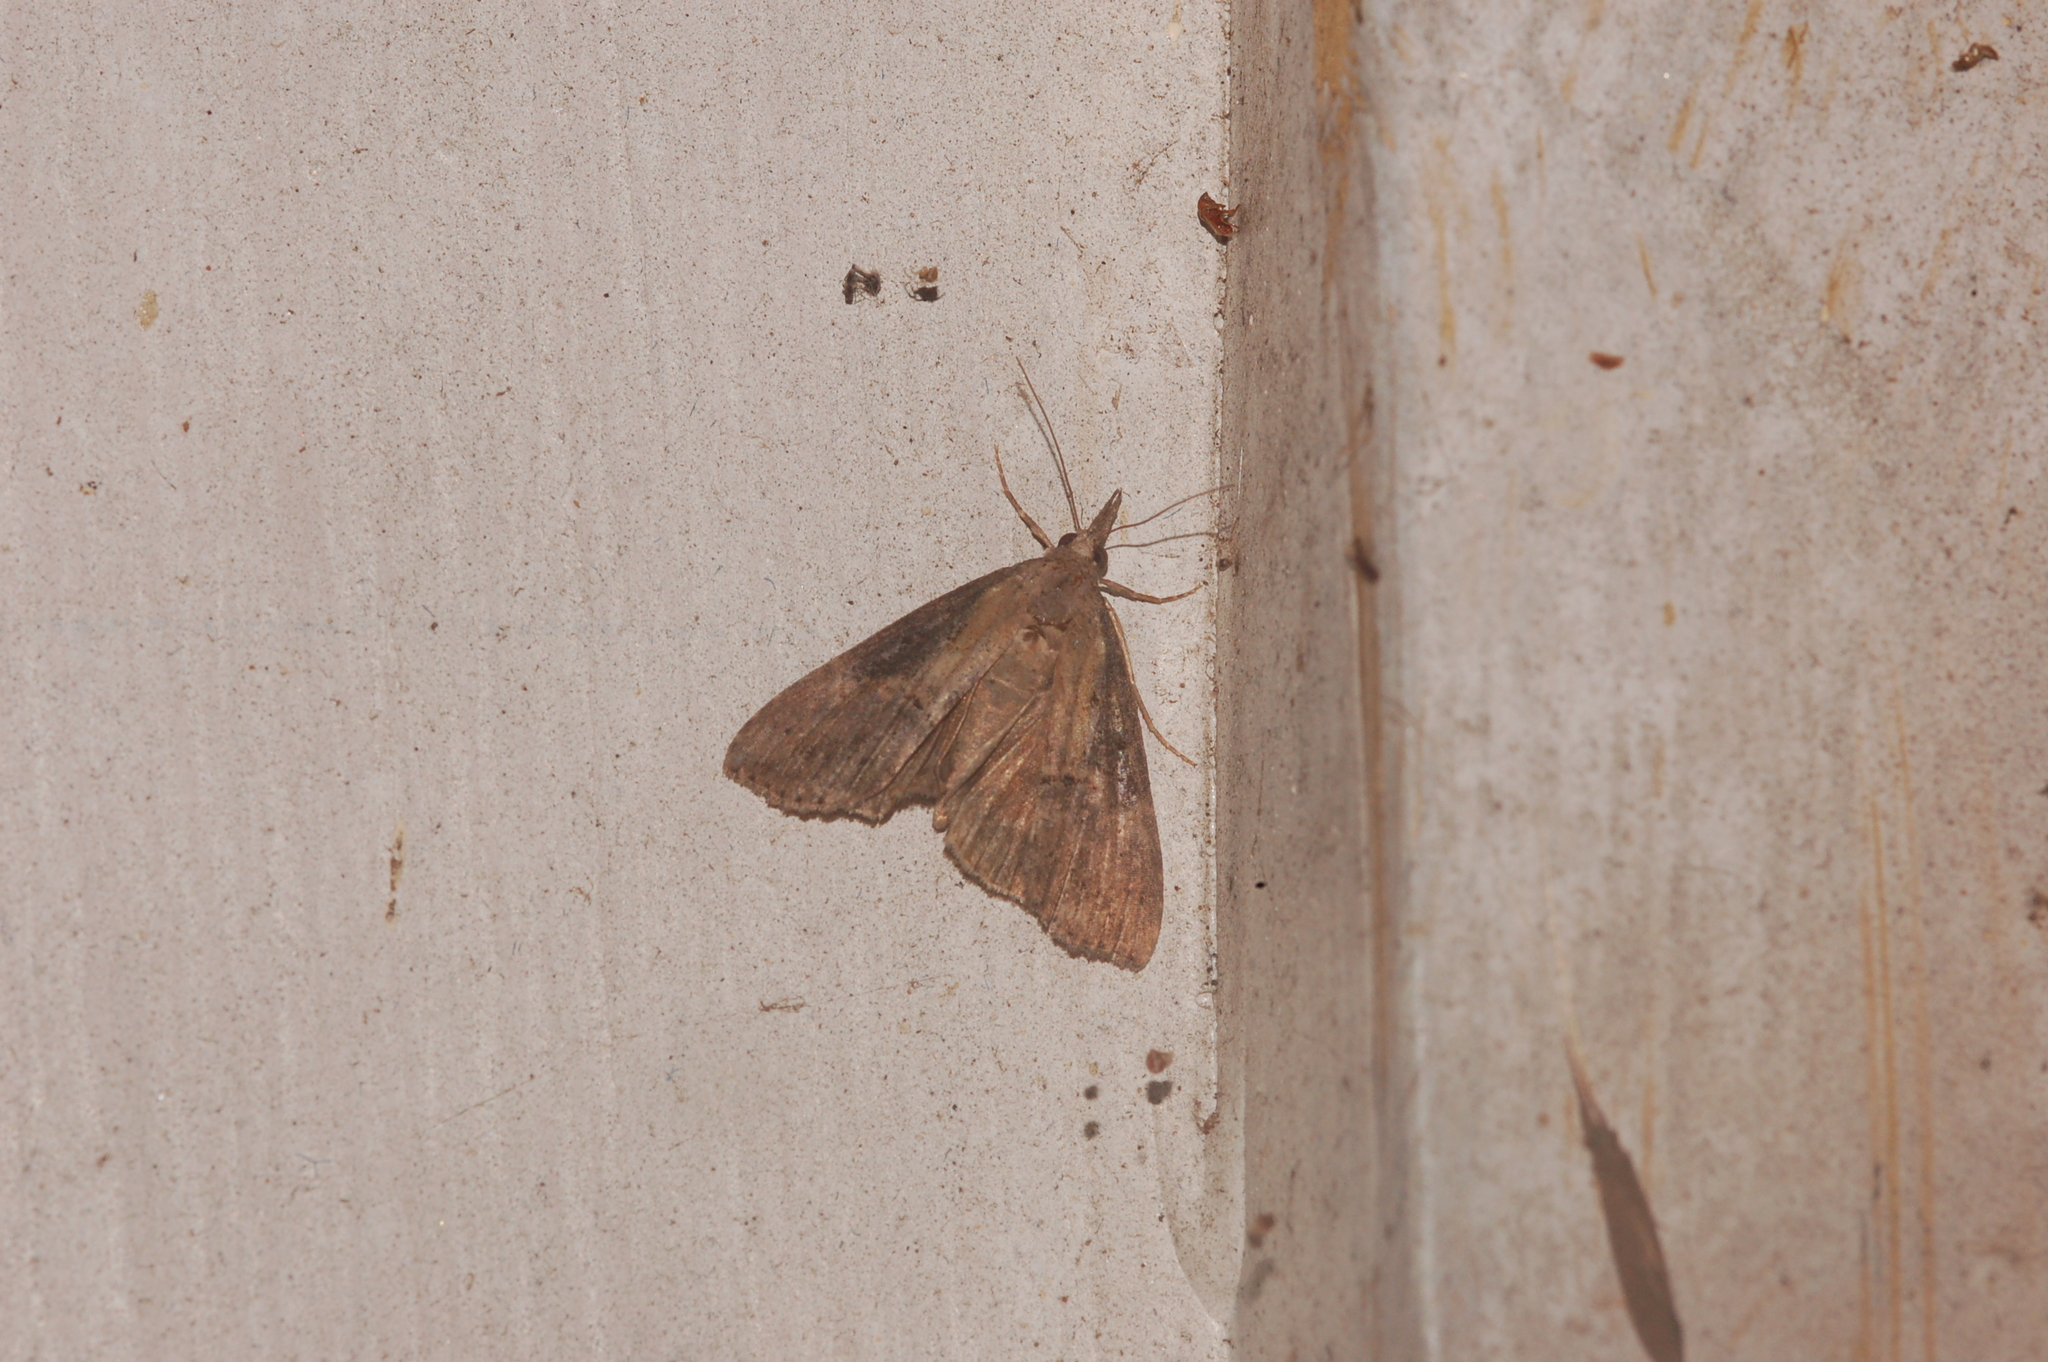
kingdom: Animalia
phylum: Arthropoda
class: Insecta
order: Lepidoptera
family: Erebidae
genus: Hypena
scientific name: Hypena scabra
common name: Green cloverworm
